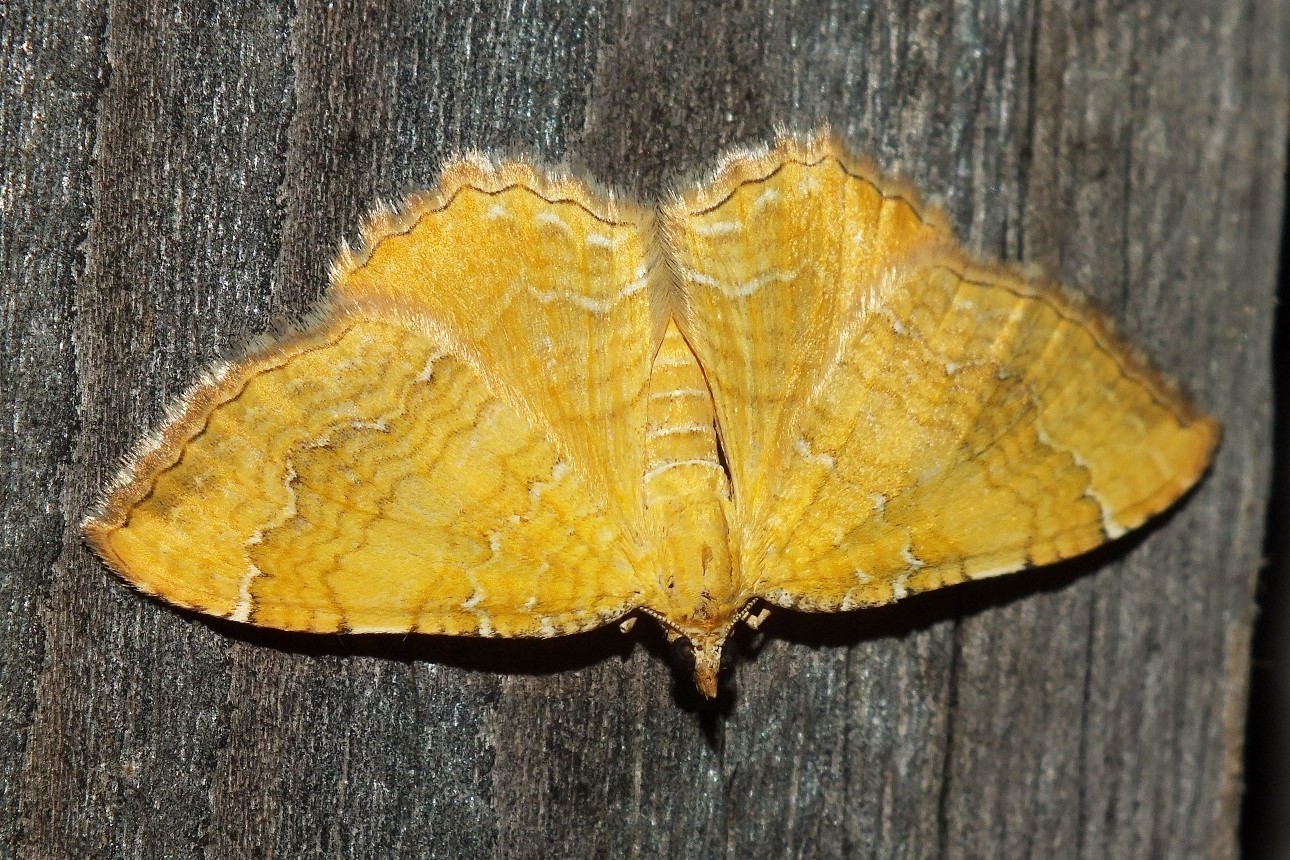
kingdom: Animalia
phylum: Arthropoda
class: Insecta
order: Lepidoptera
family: Geometridae
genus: Camptogramma
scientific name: Camptogramma bilineata
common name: Yellow shell
